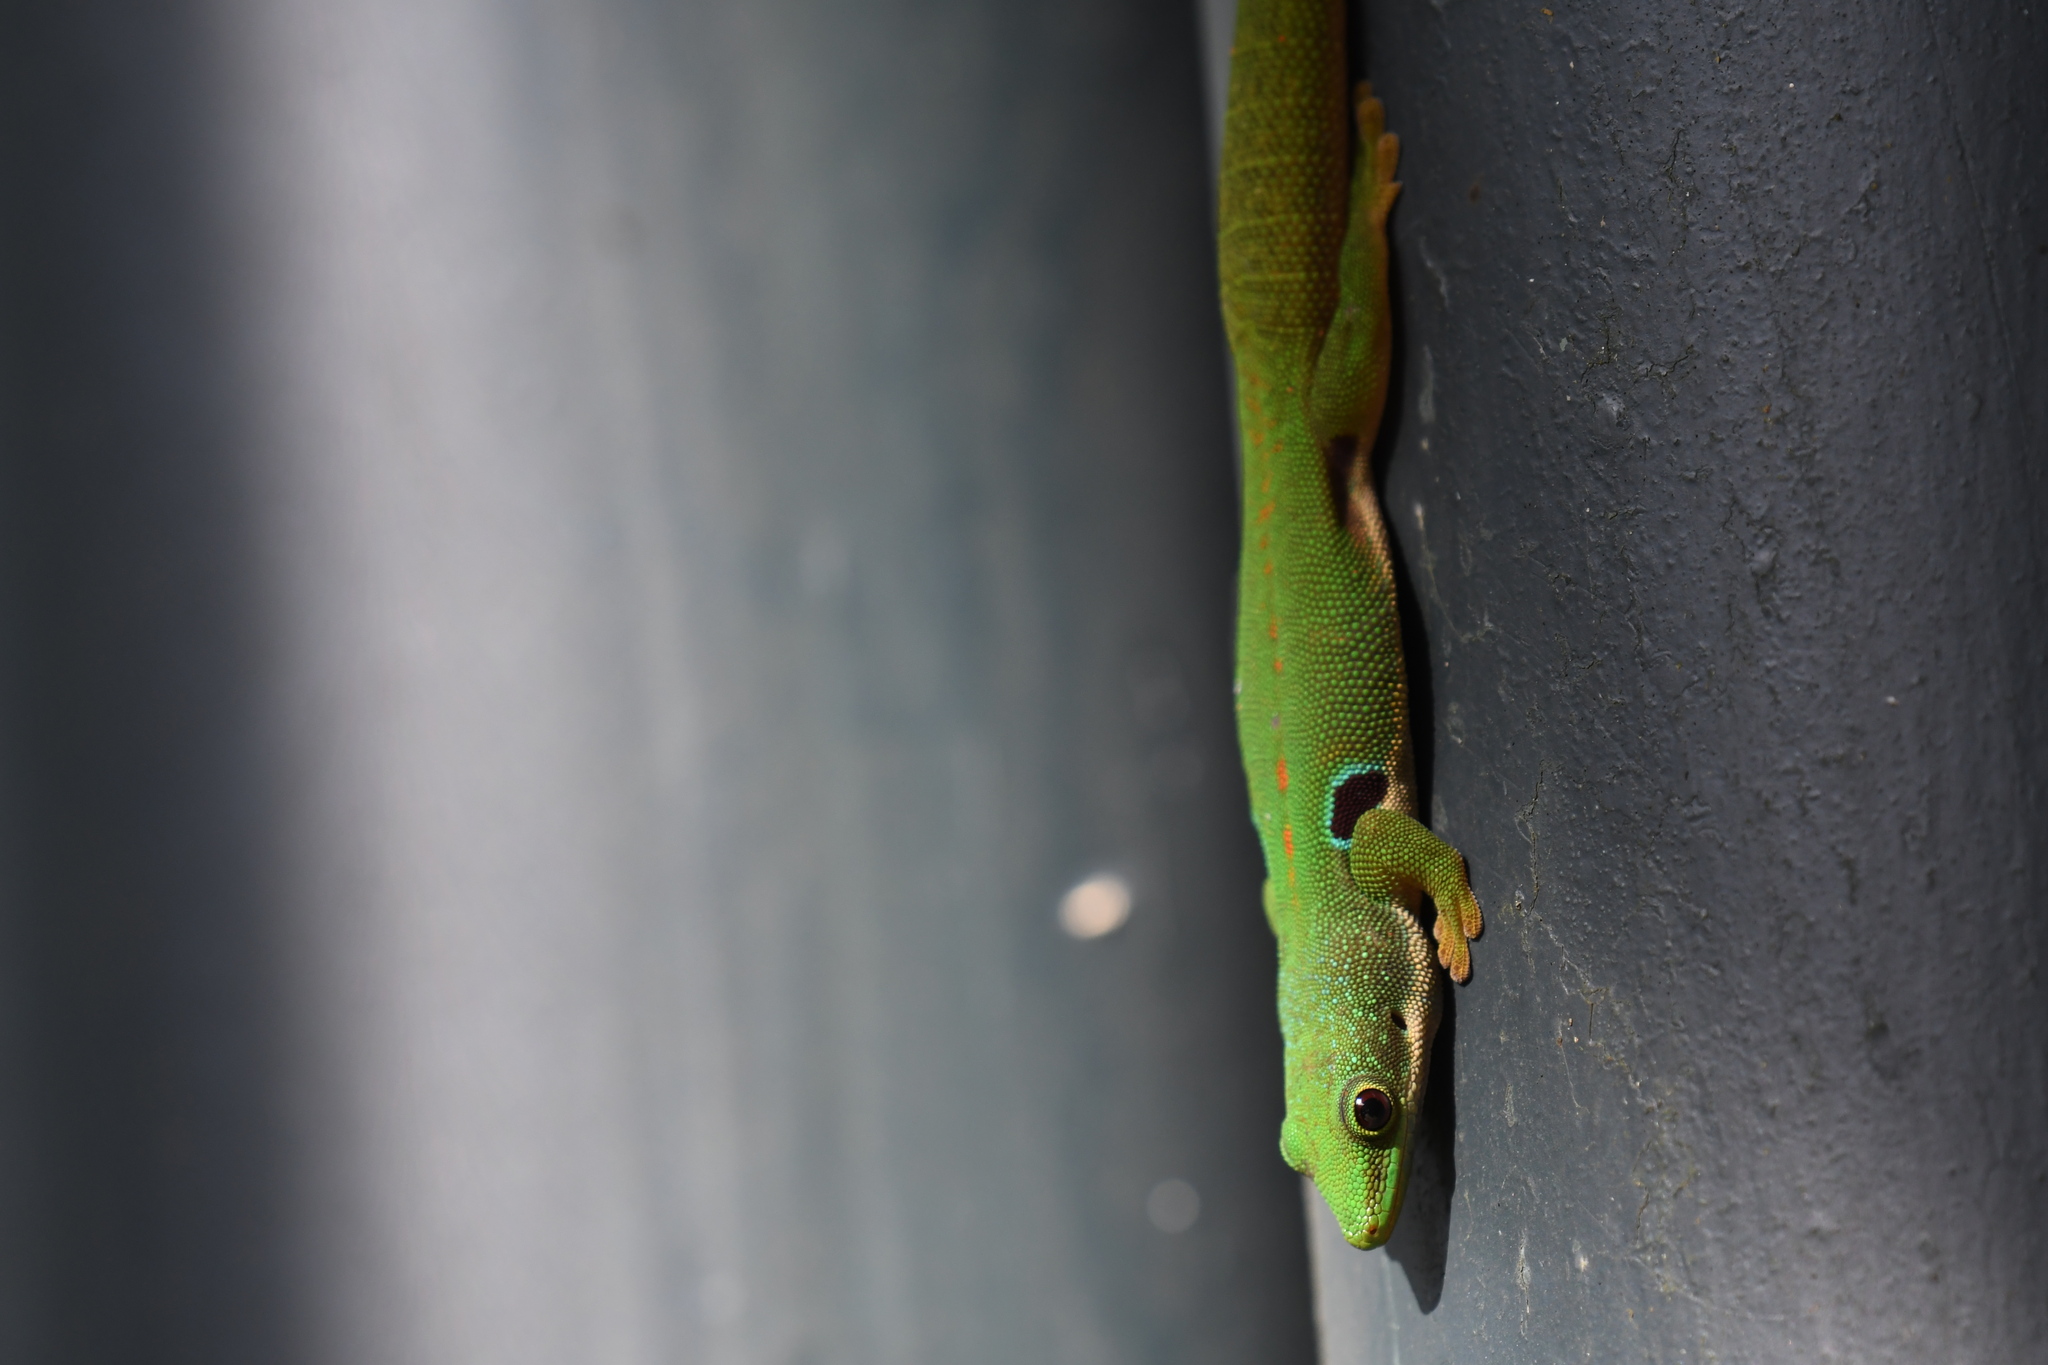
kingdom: Animalia
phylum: Chordata
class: Squamata
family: Gekkonidae
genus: Phelsuma
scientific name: Phelsuma quadriocellata
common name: Peacock day gecko
